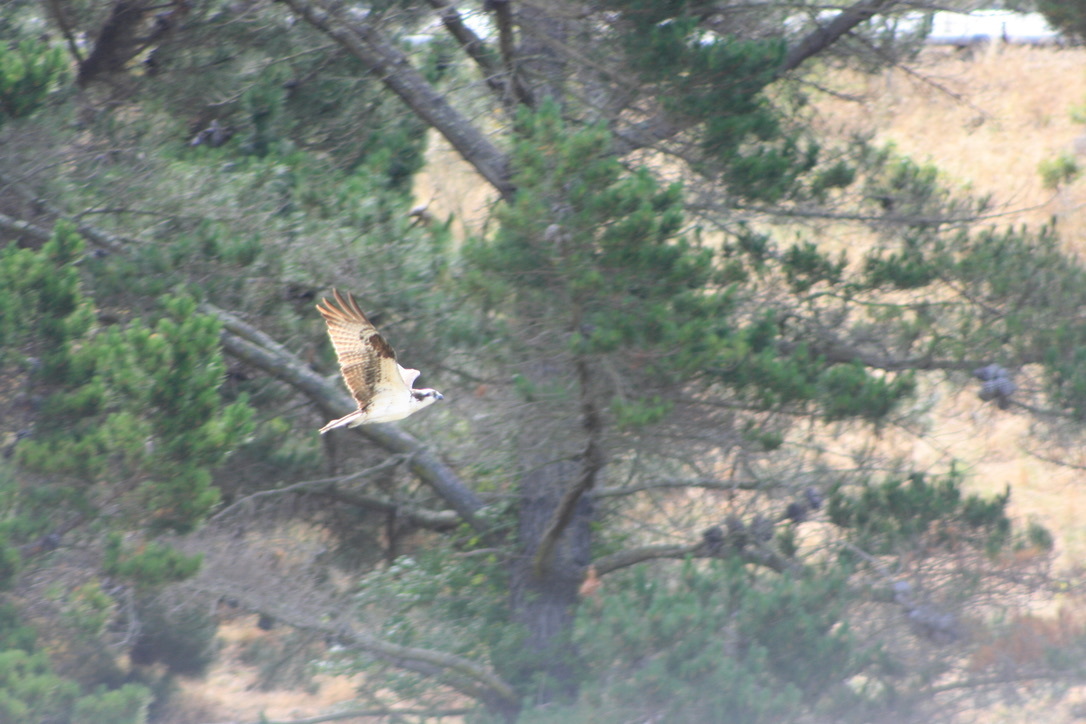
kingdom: Animalia
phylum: Chordata
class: Aves
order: Accipitriformes
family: Pandionidae
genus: Pandion
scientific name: Pandion haliaetus
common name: Osprey
